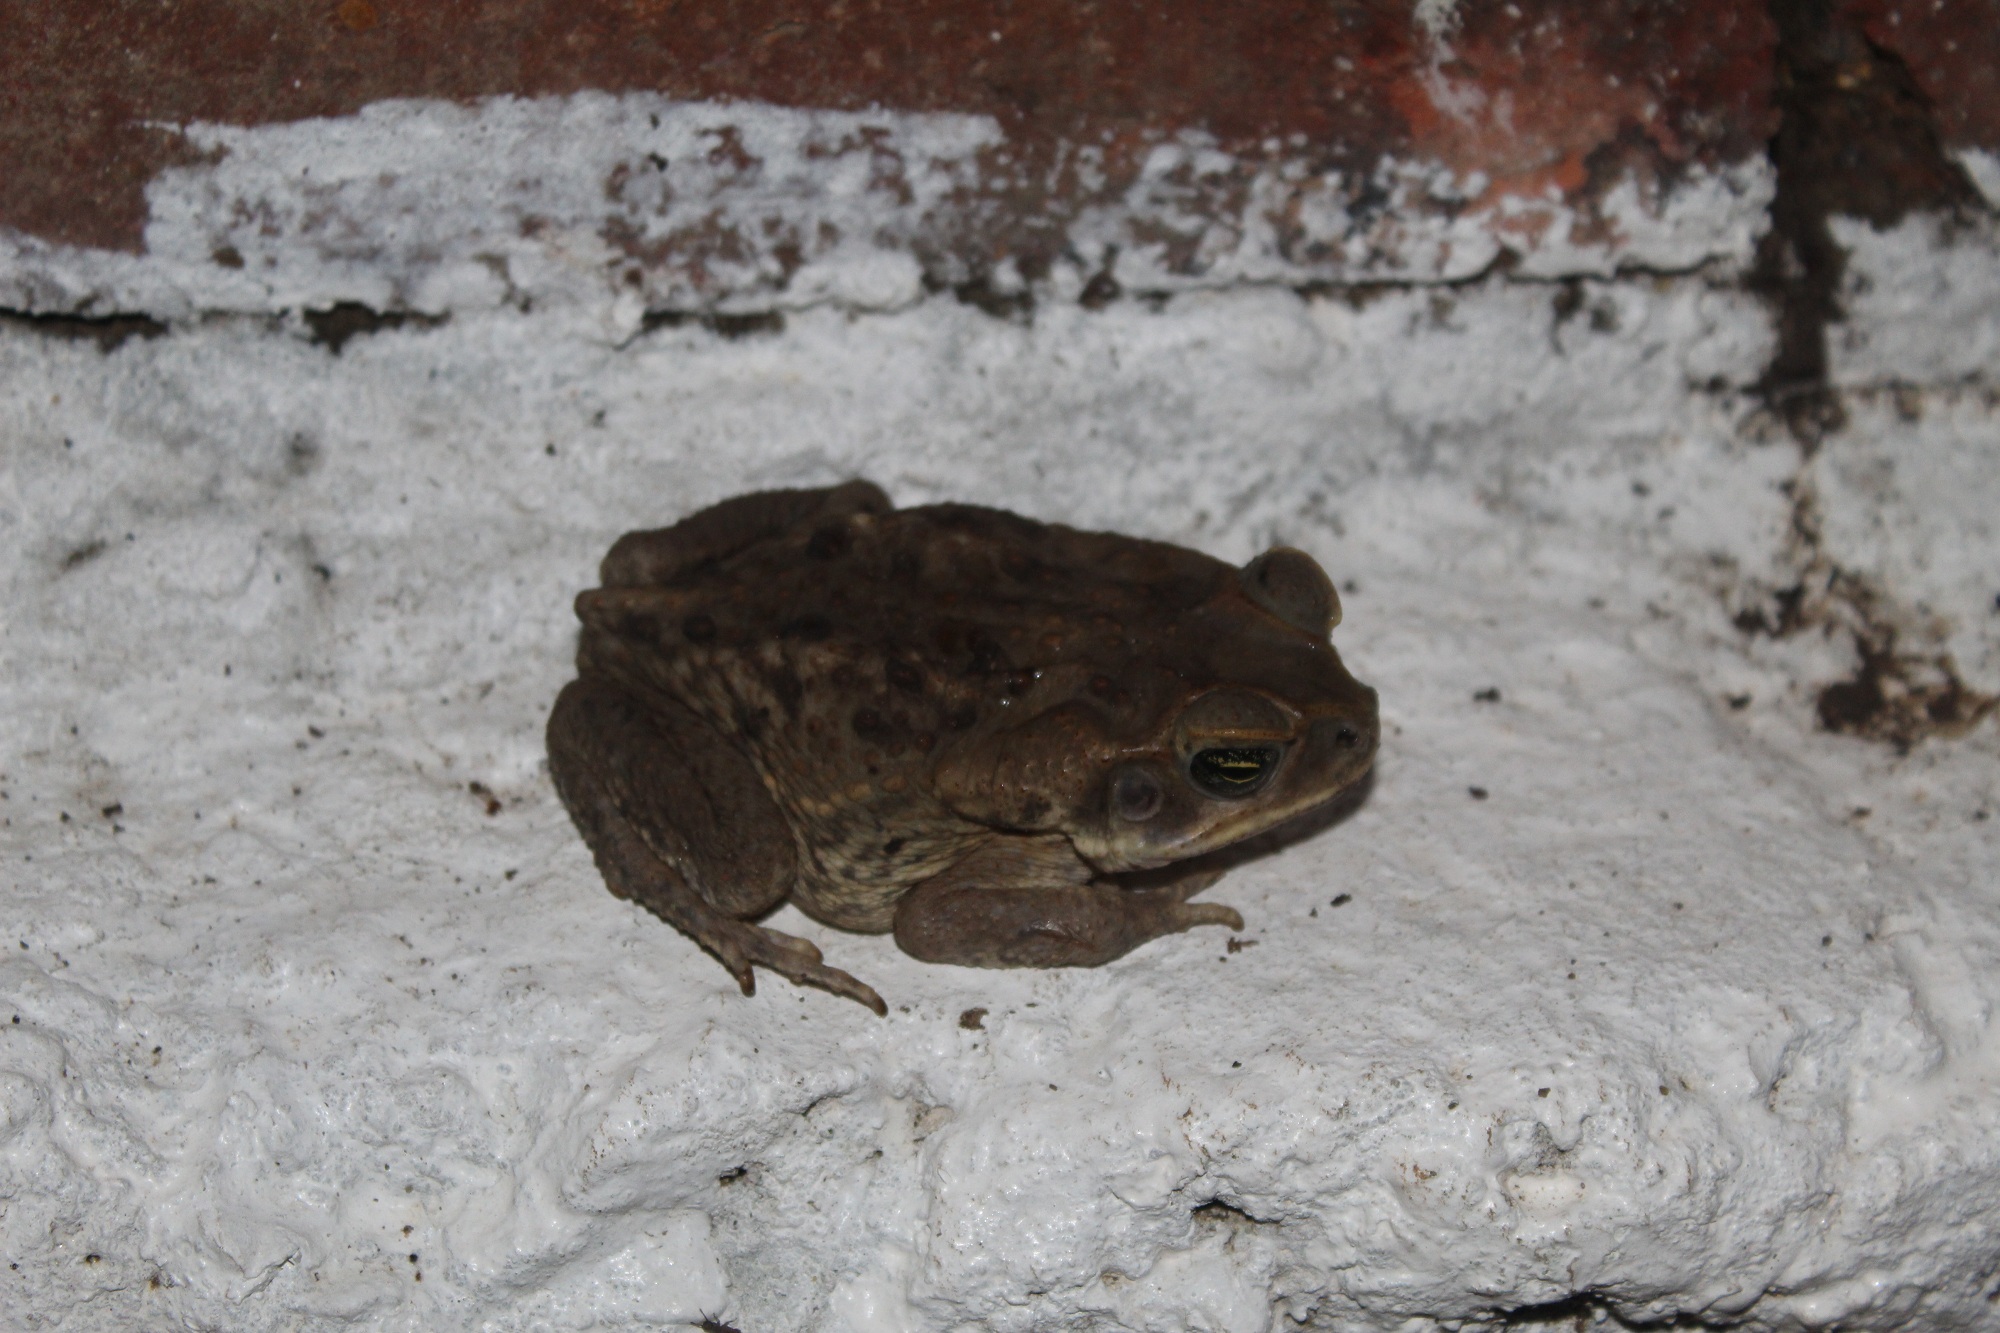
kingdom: Animalia
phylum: Chordata
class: Amphibia
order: Anura
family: Bufonidae
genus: Rhinella
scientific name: Rhinella marina
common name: Cane toad
